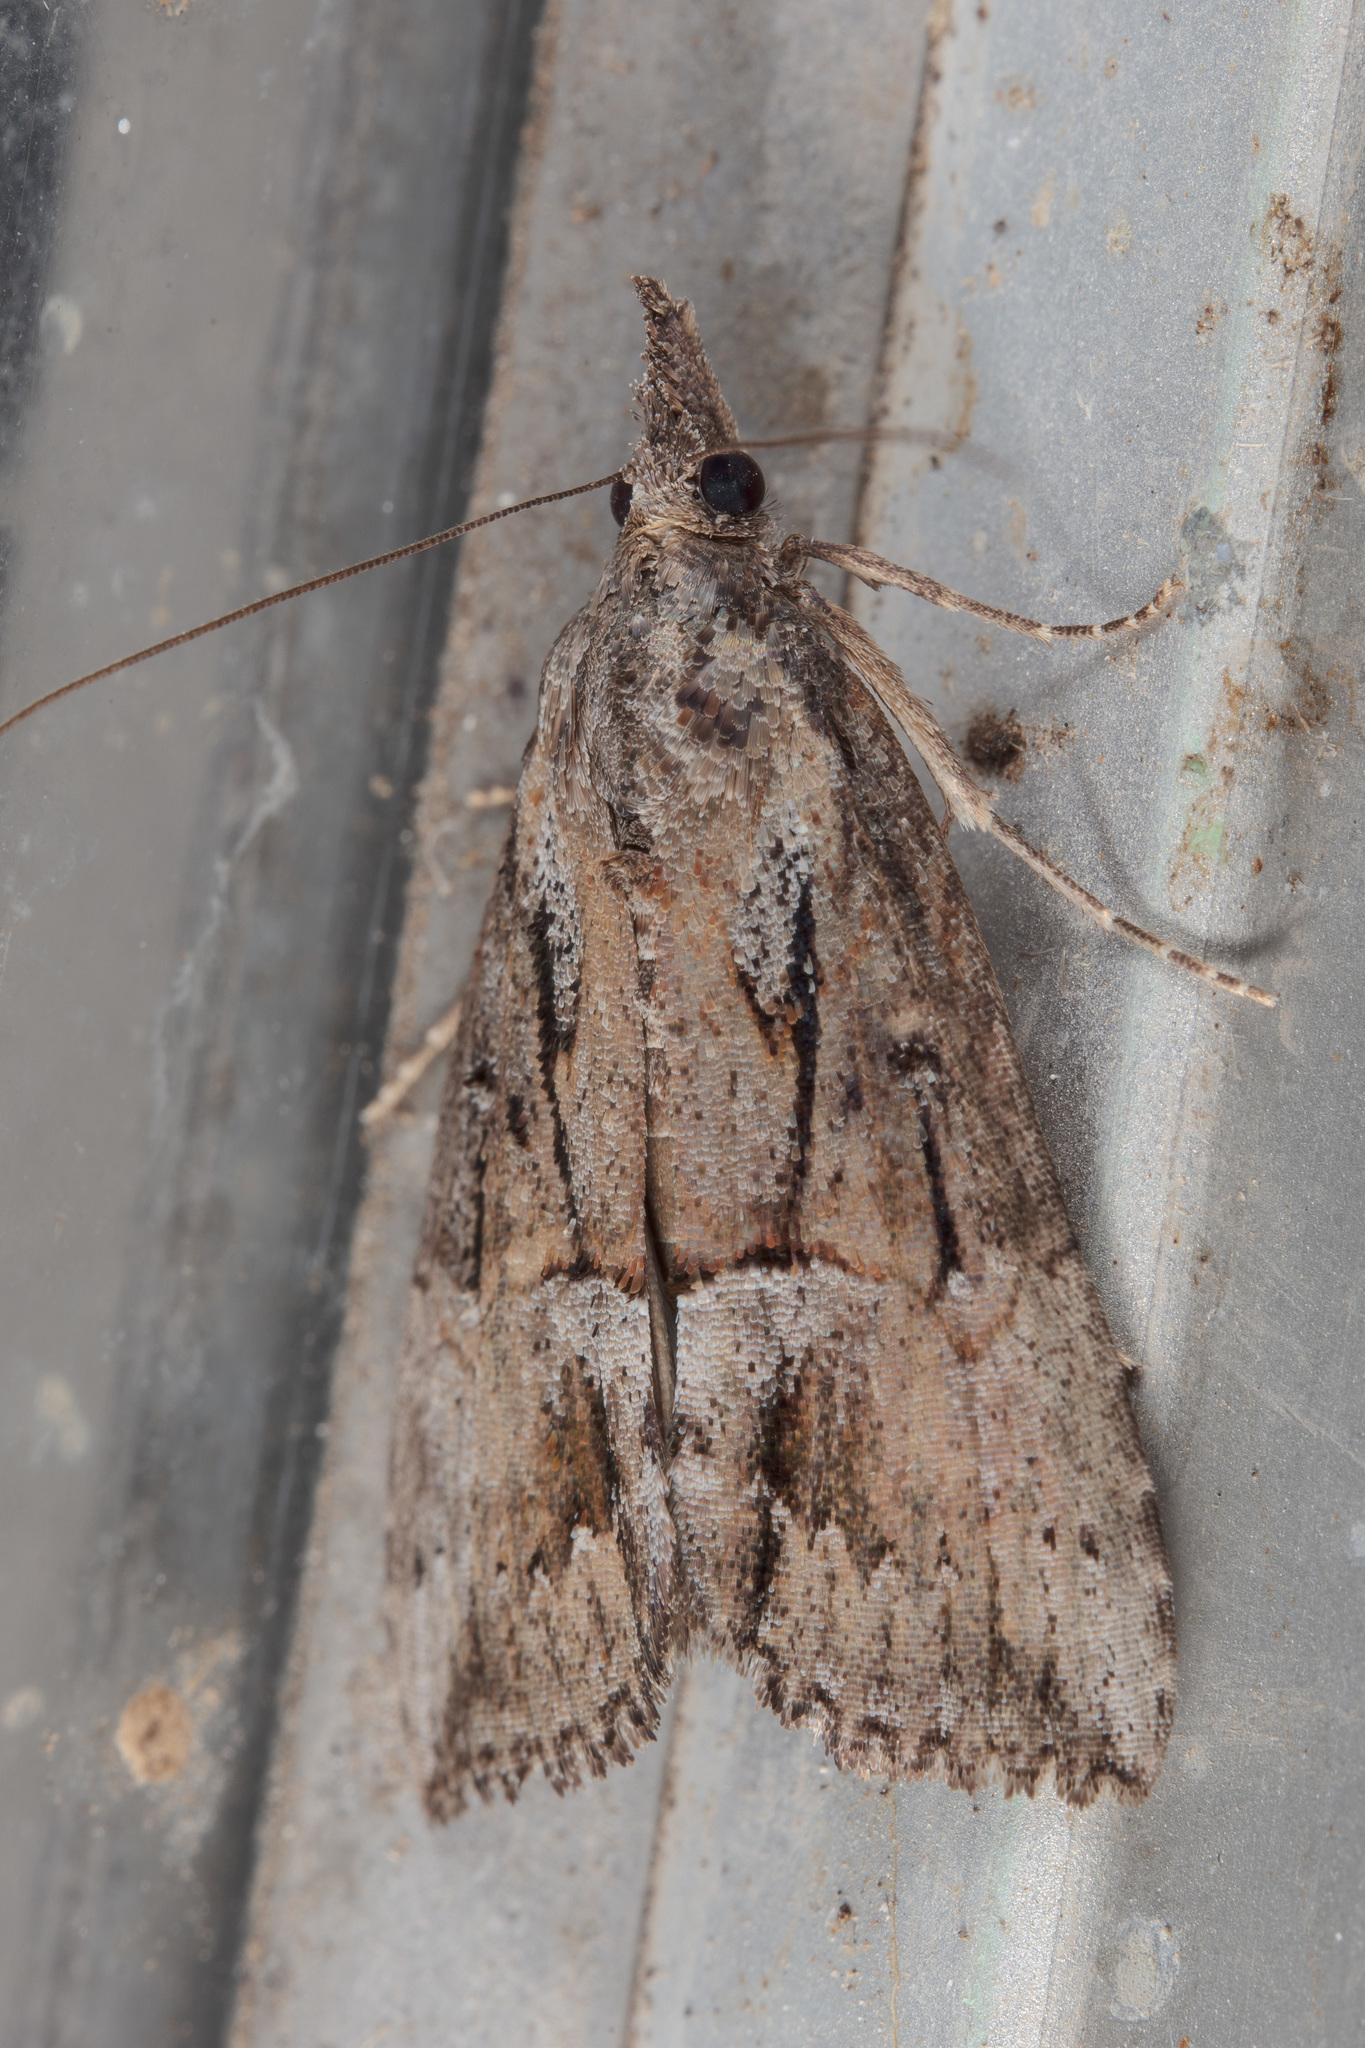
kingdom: Animalia
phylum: Arthropoda
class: Insecta
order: Lepidoptera
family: Erebidae
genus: Hypena
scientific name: Hypena scabra
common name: Green cloverworm
